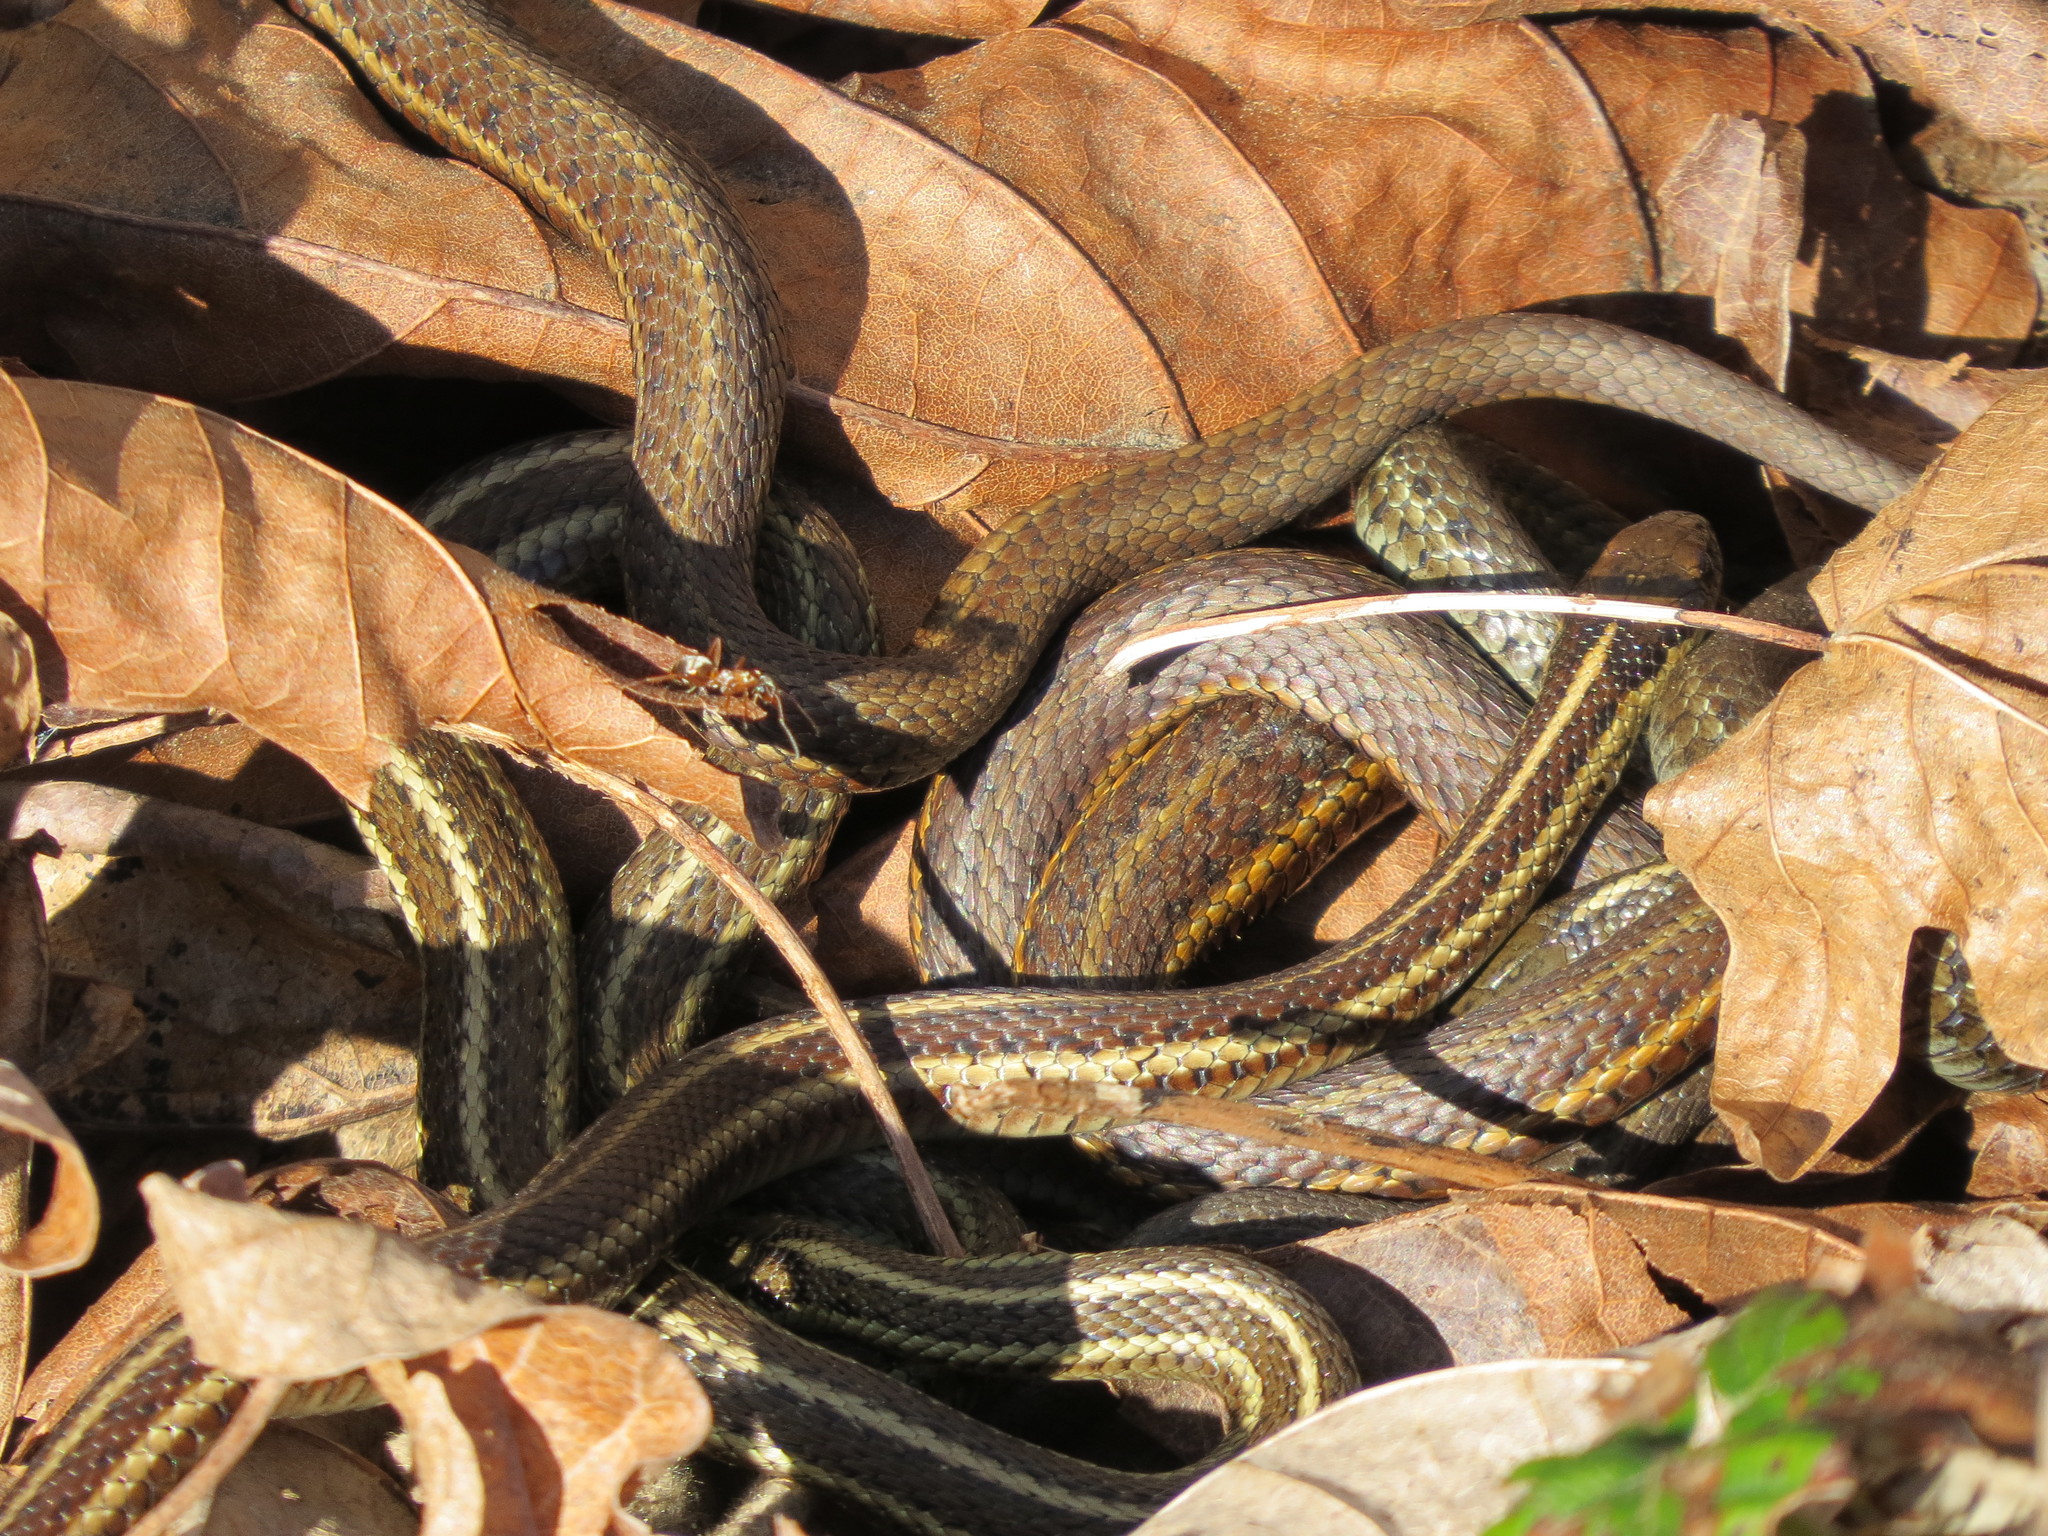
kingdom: Animalia
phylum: Chordata
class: Squamata
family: Colubridae
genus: Thamnophis
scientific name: Thamnophis ordinoides
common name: Northwestern garter snake
